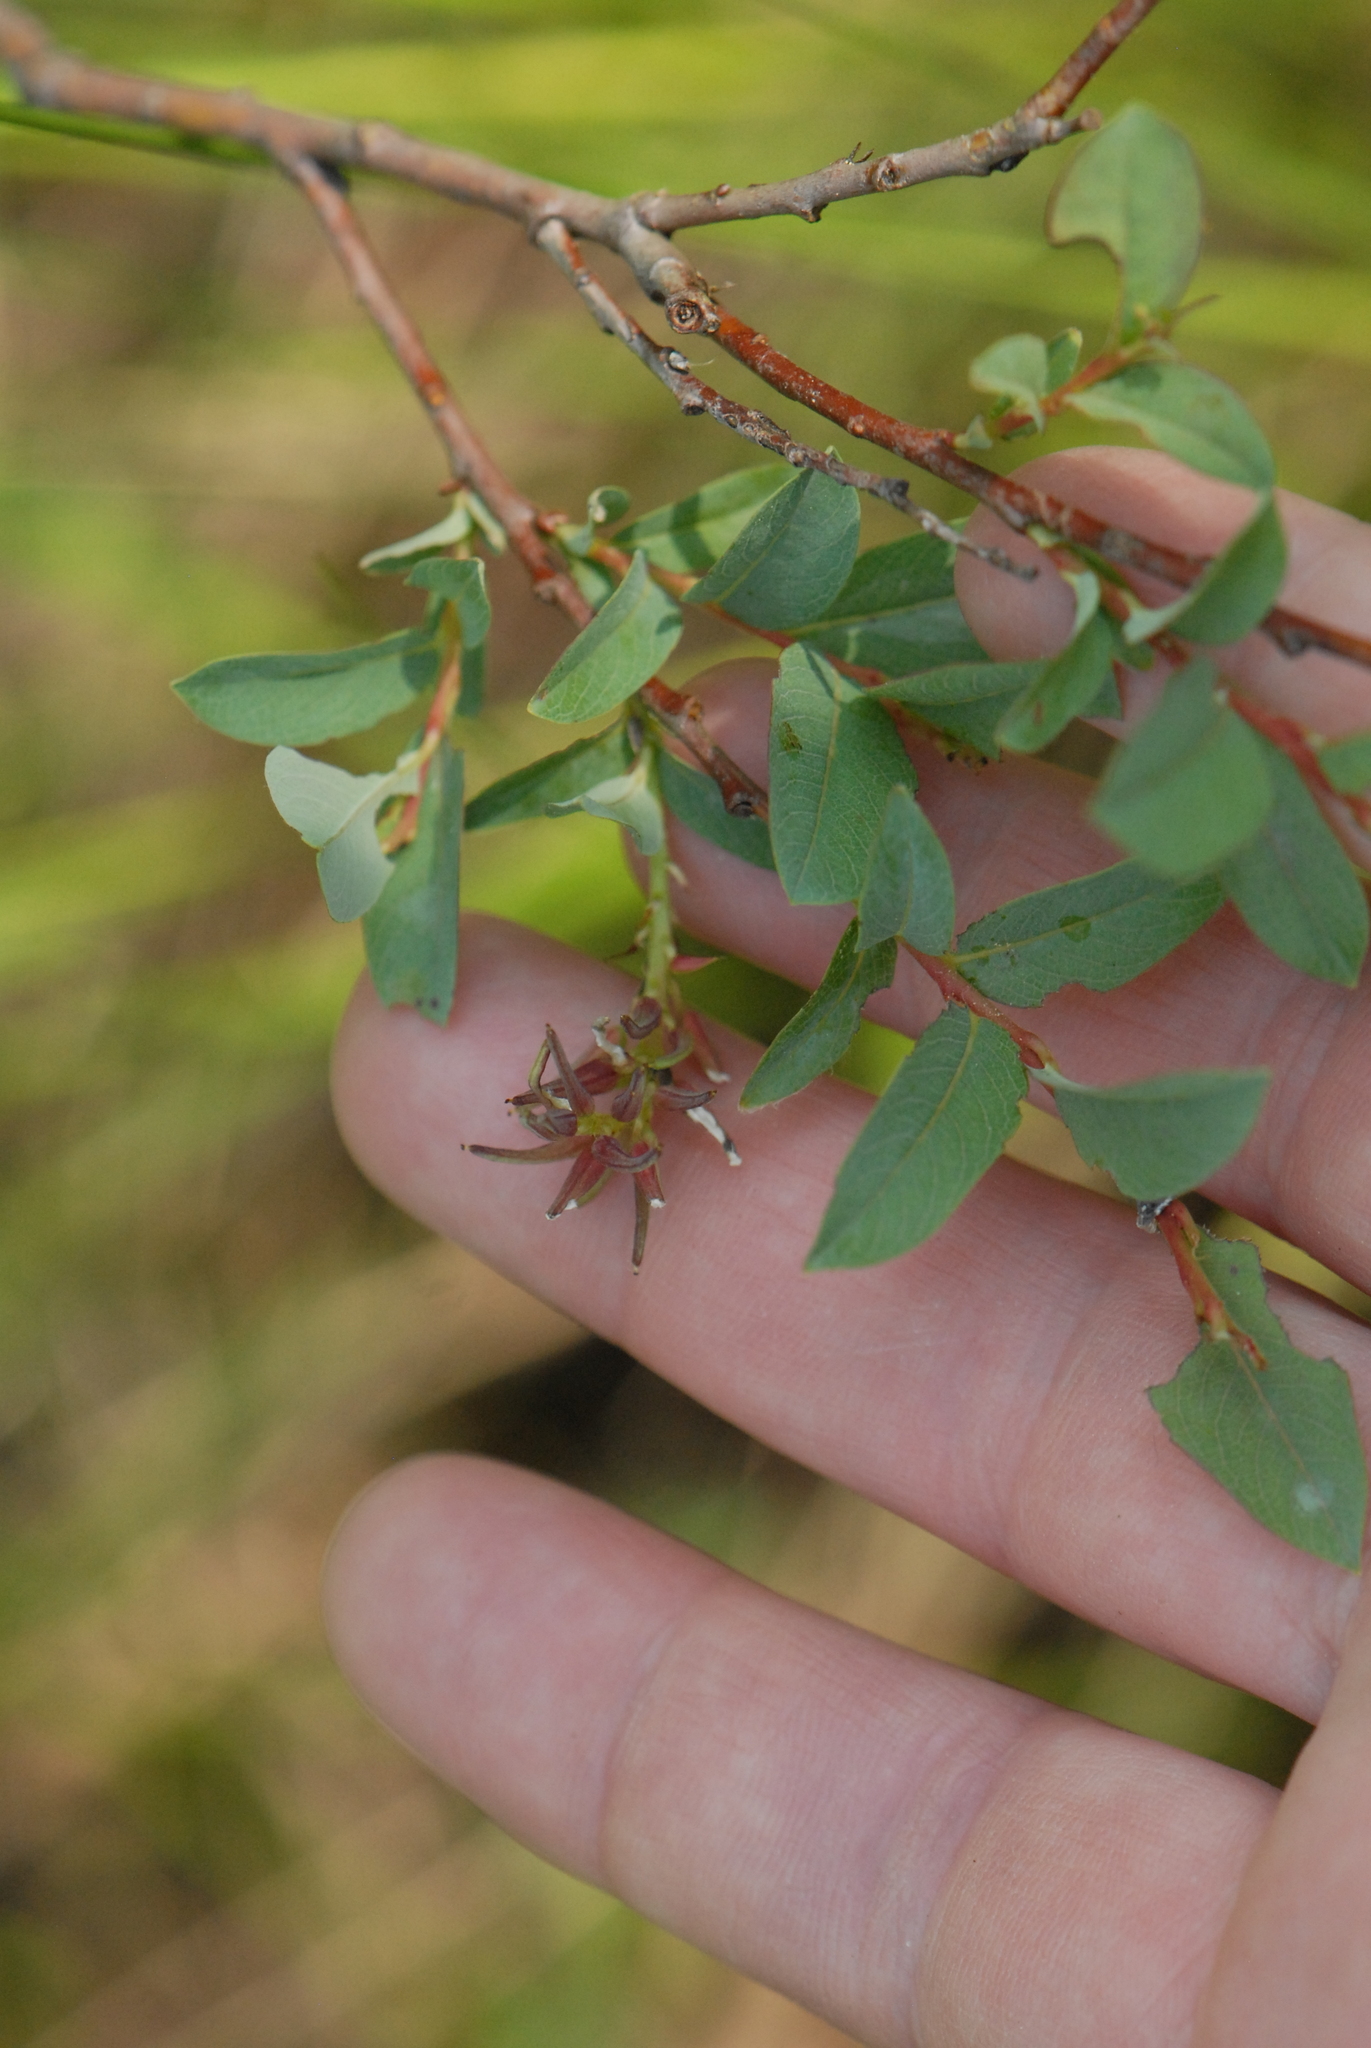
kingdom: Plantae
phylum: Tracheophyta
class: Magnoliopsida
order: Malpighiales
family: Salicaceae
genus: Salix
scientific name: Salix myrtilloides
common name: Myrtle-leaved willow
